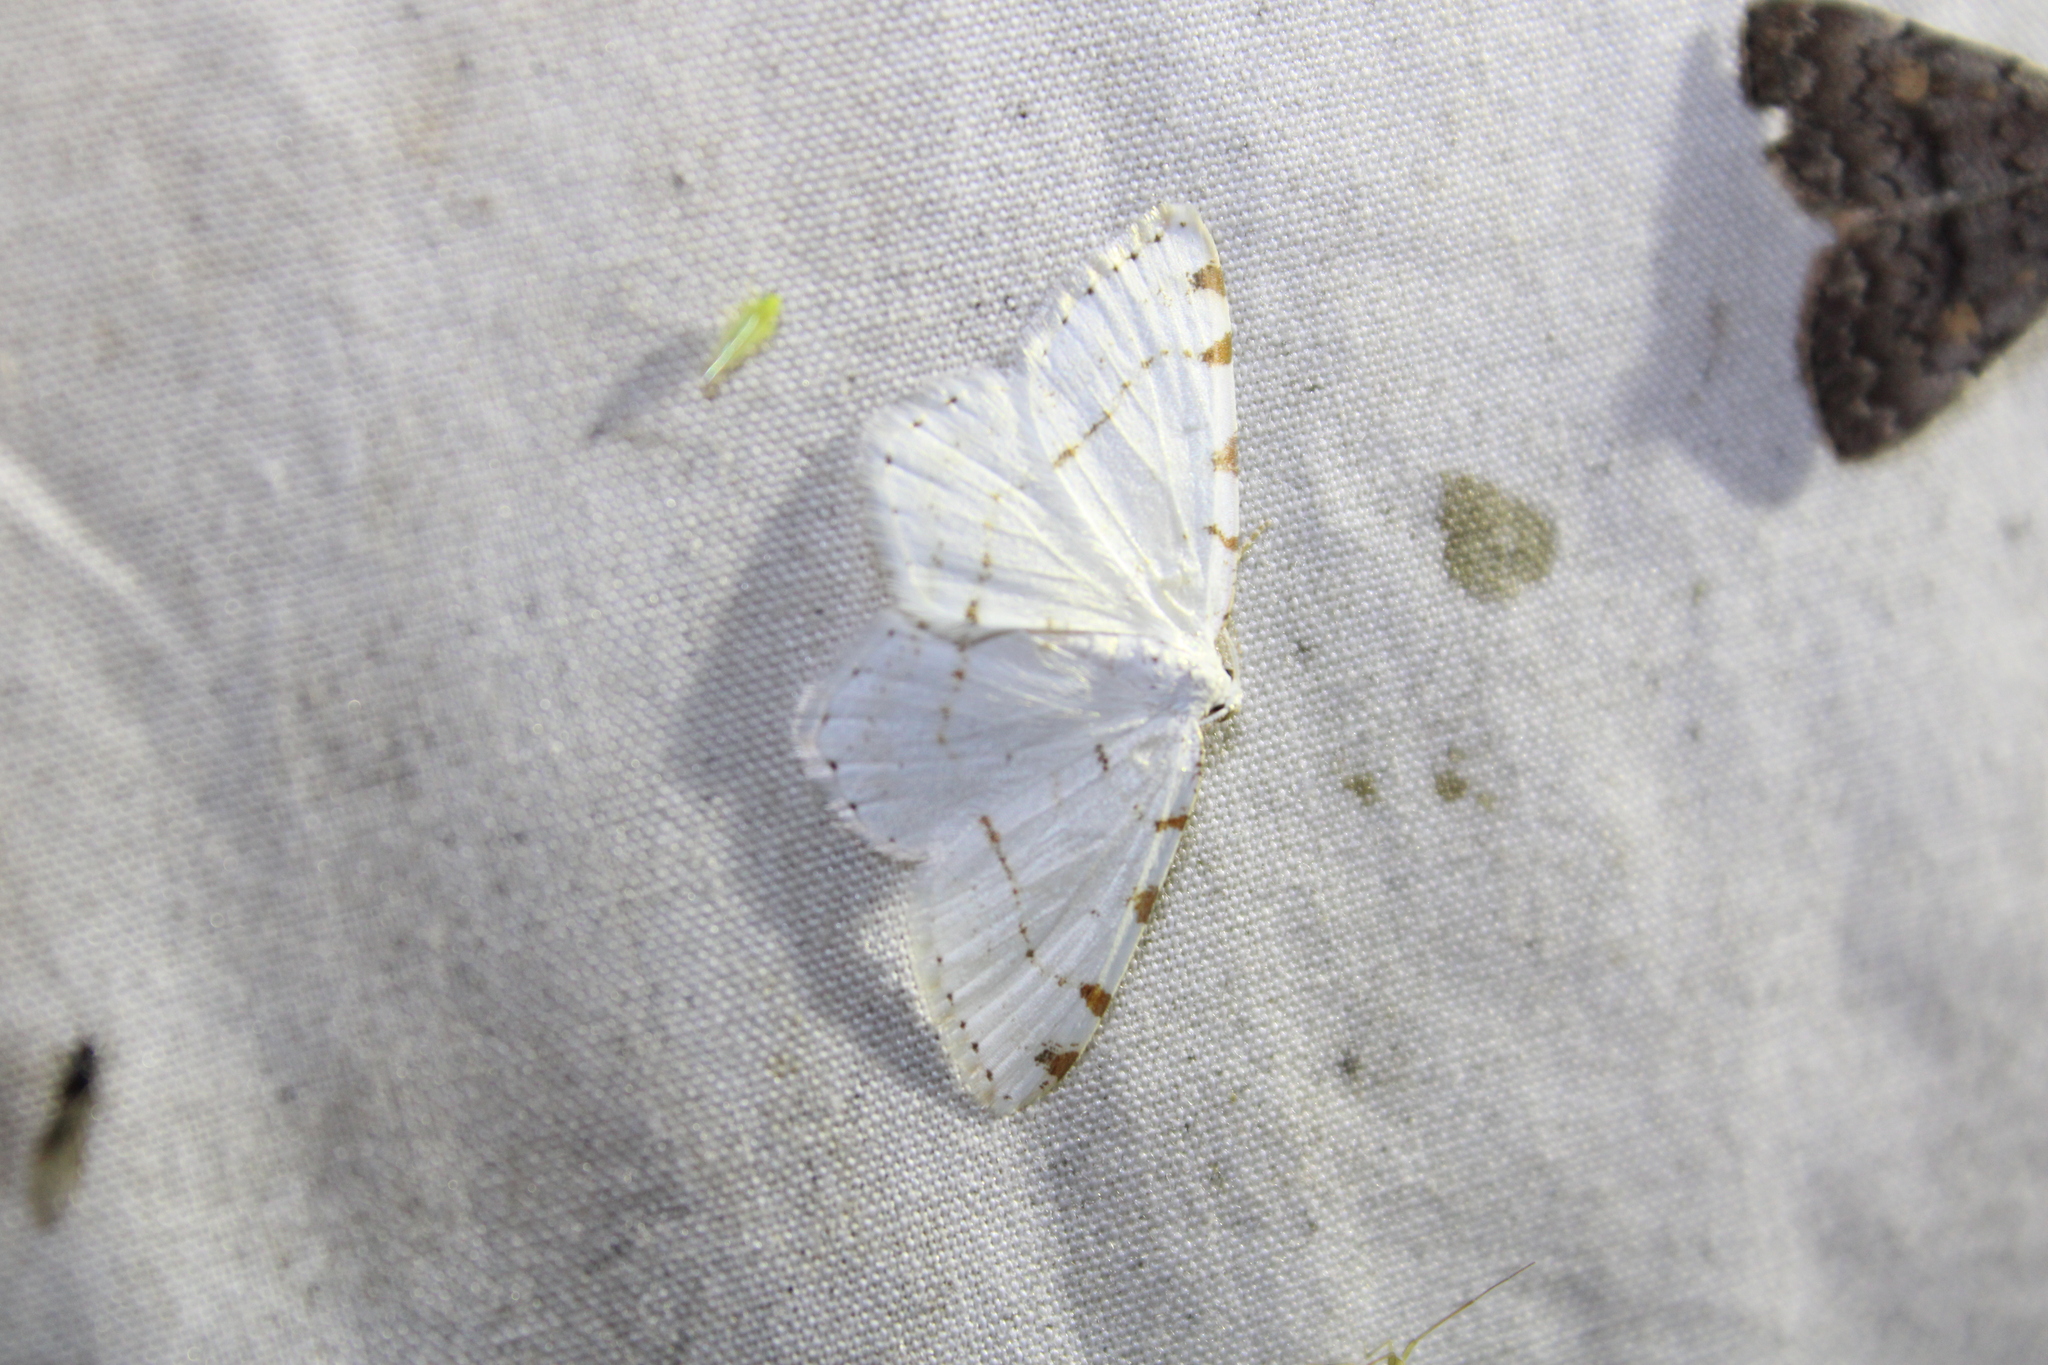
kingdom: Animalia
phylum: Arthropoda
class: Insecta
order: Lepidoptera
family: Geometridae
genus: Macaria
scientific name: Macaria pustularia
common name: Lesser maple spanworm moth
